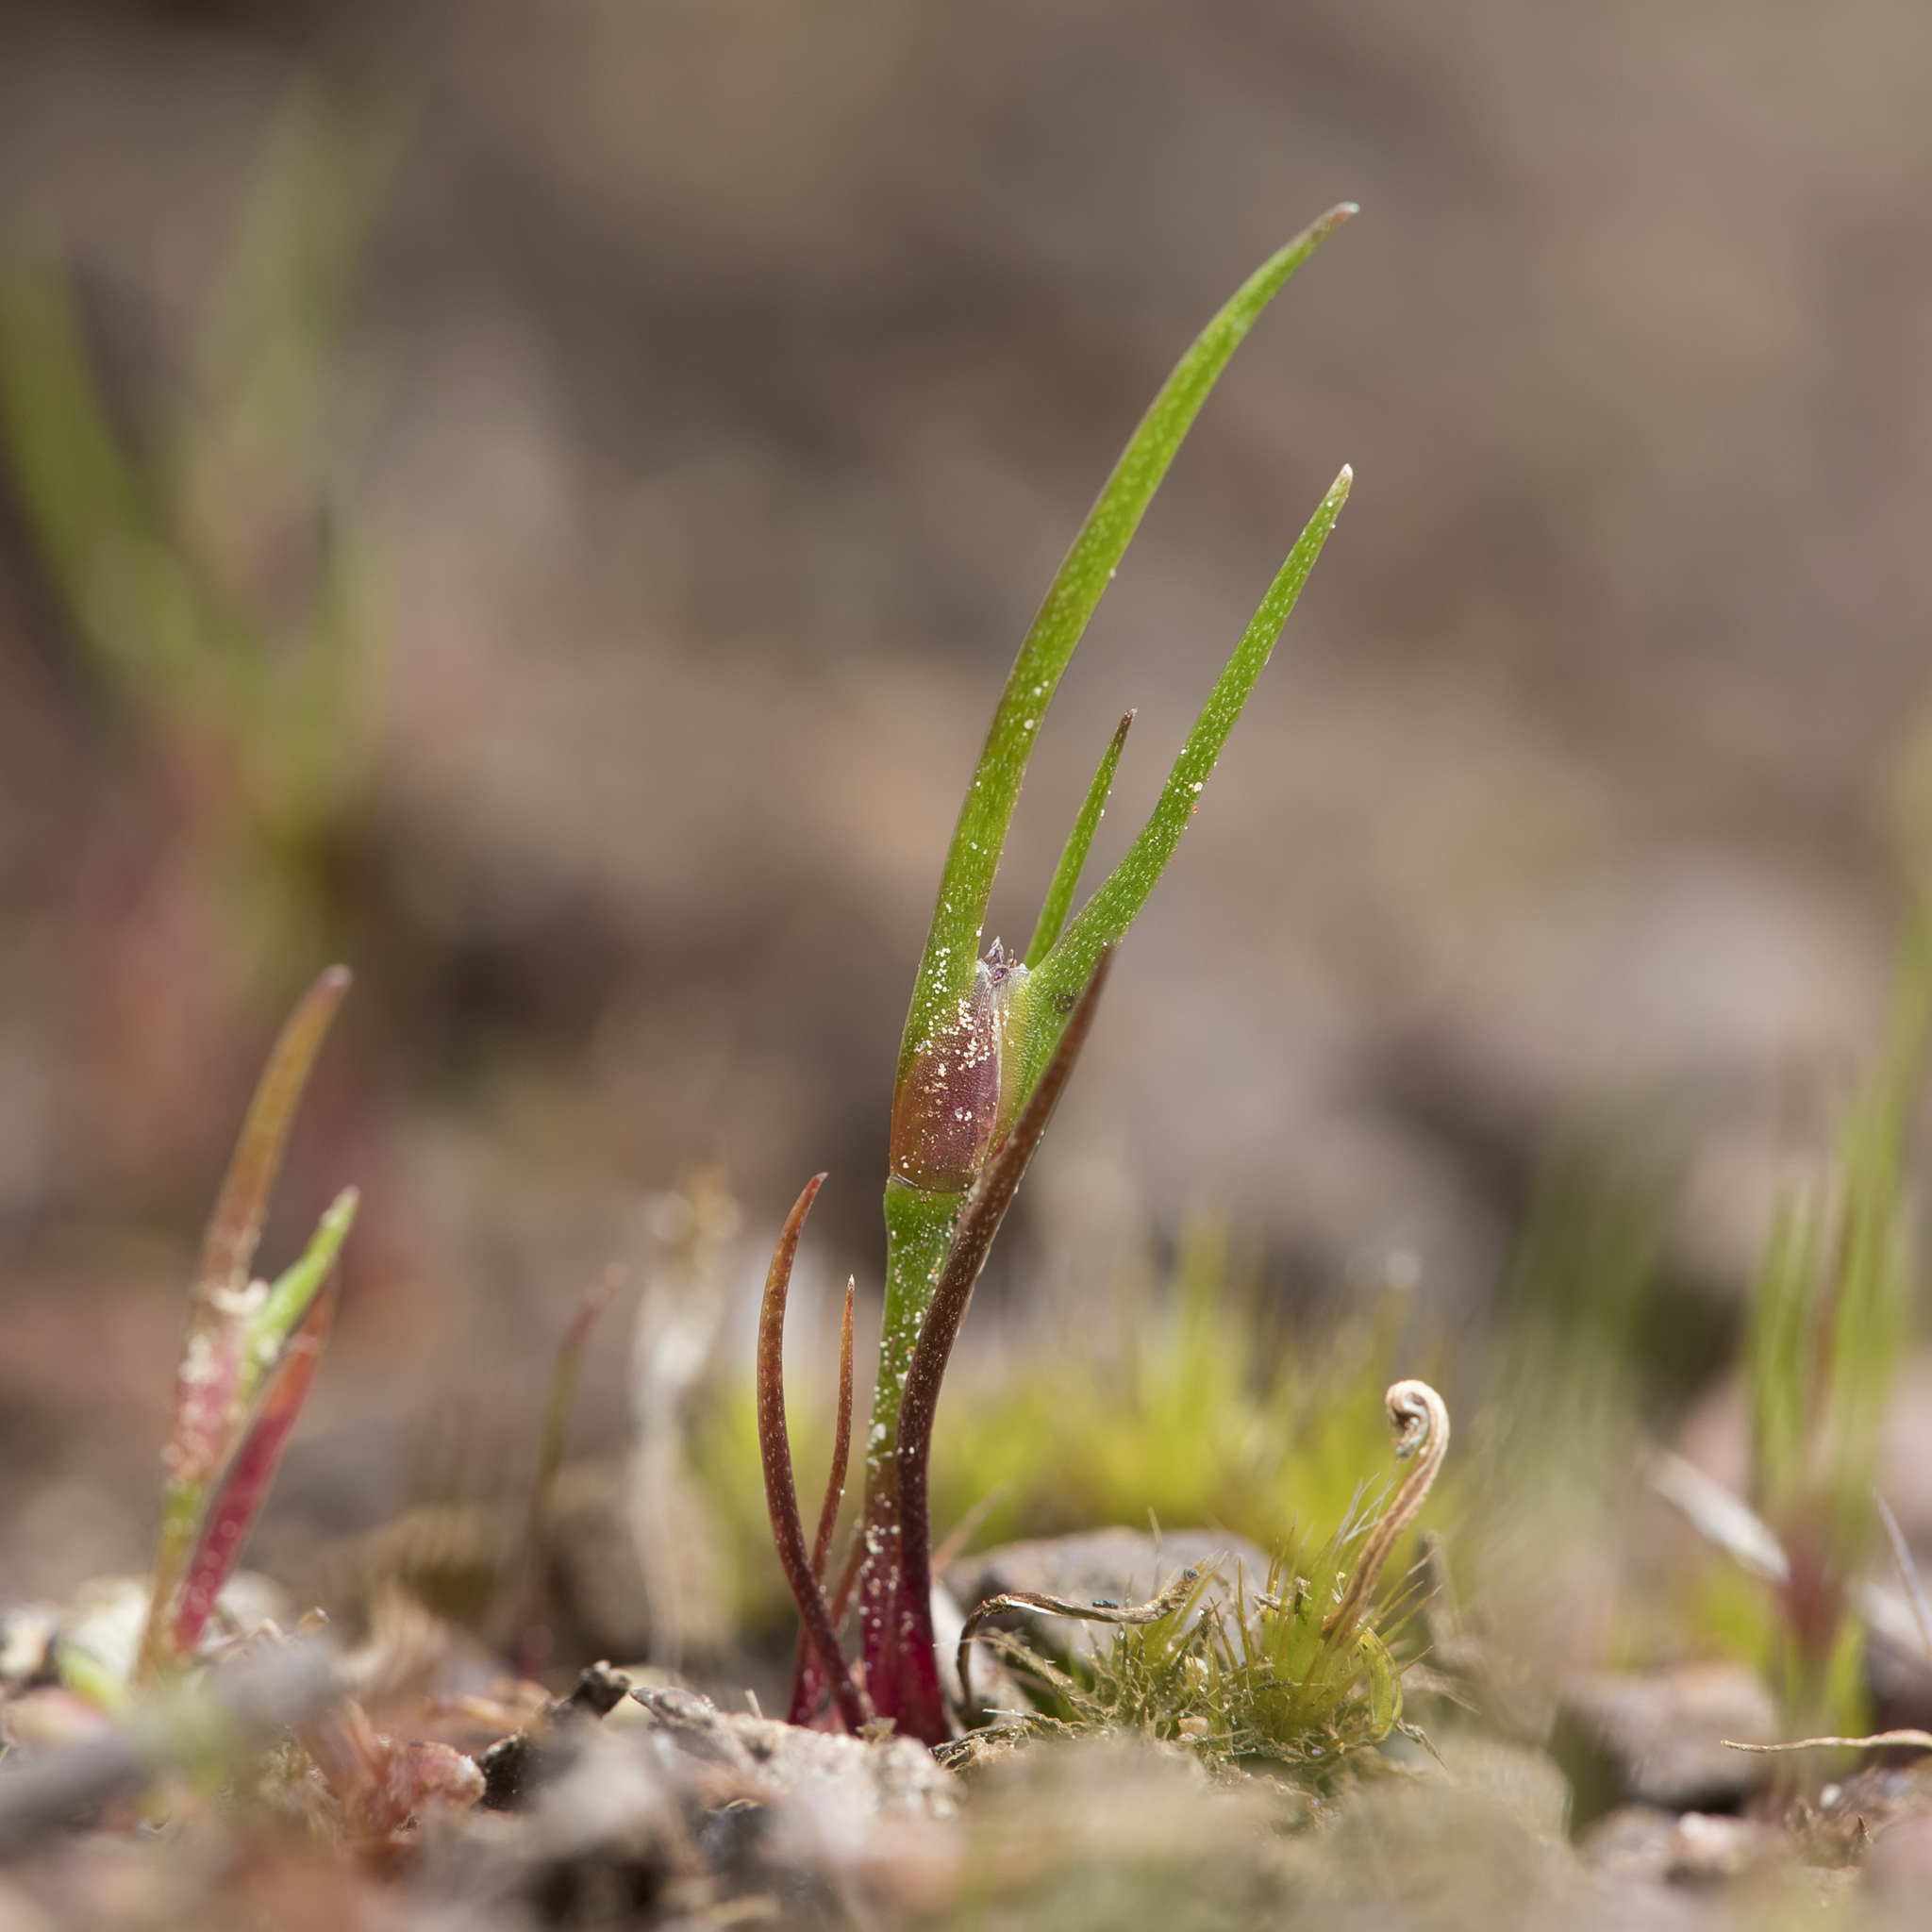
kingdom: Plantae
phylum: Tracheophyta
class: Liliopsida
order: Poales
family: Restionaceae
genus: Centrolepis
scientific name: Centrolepis aristata
